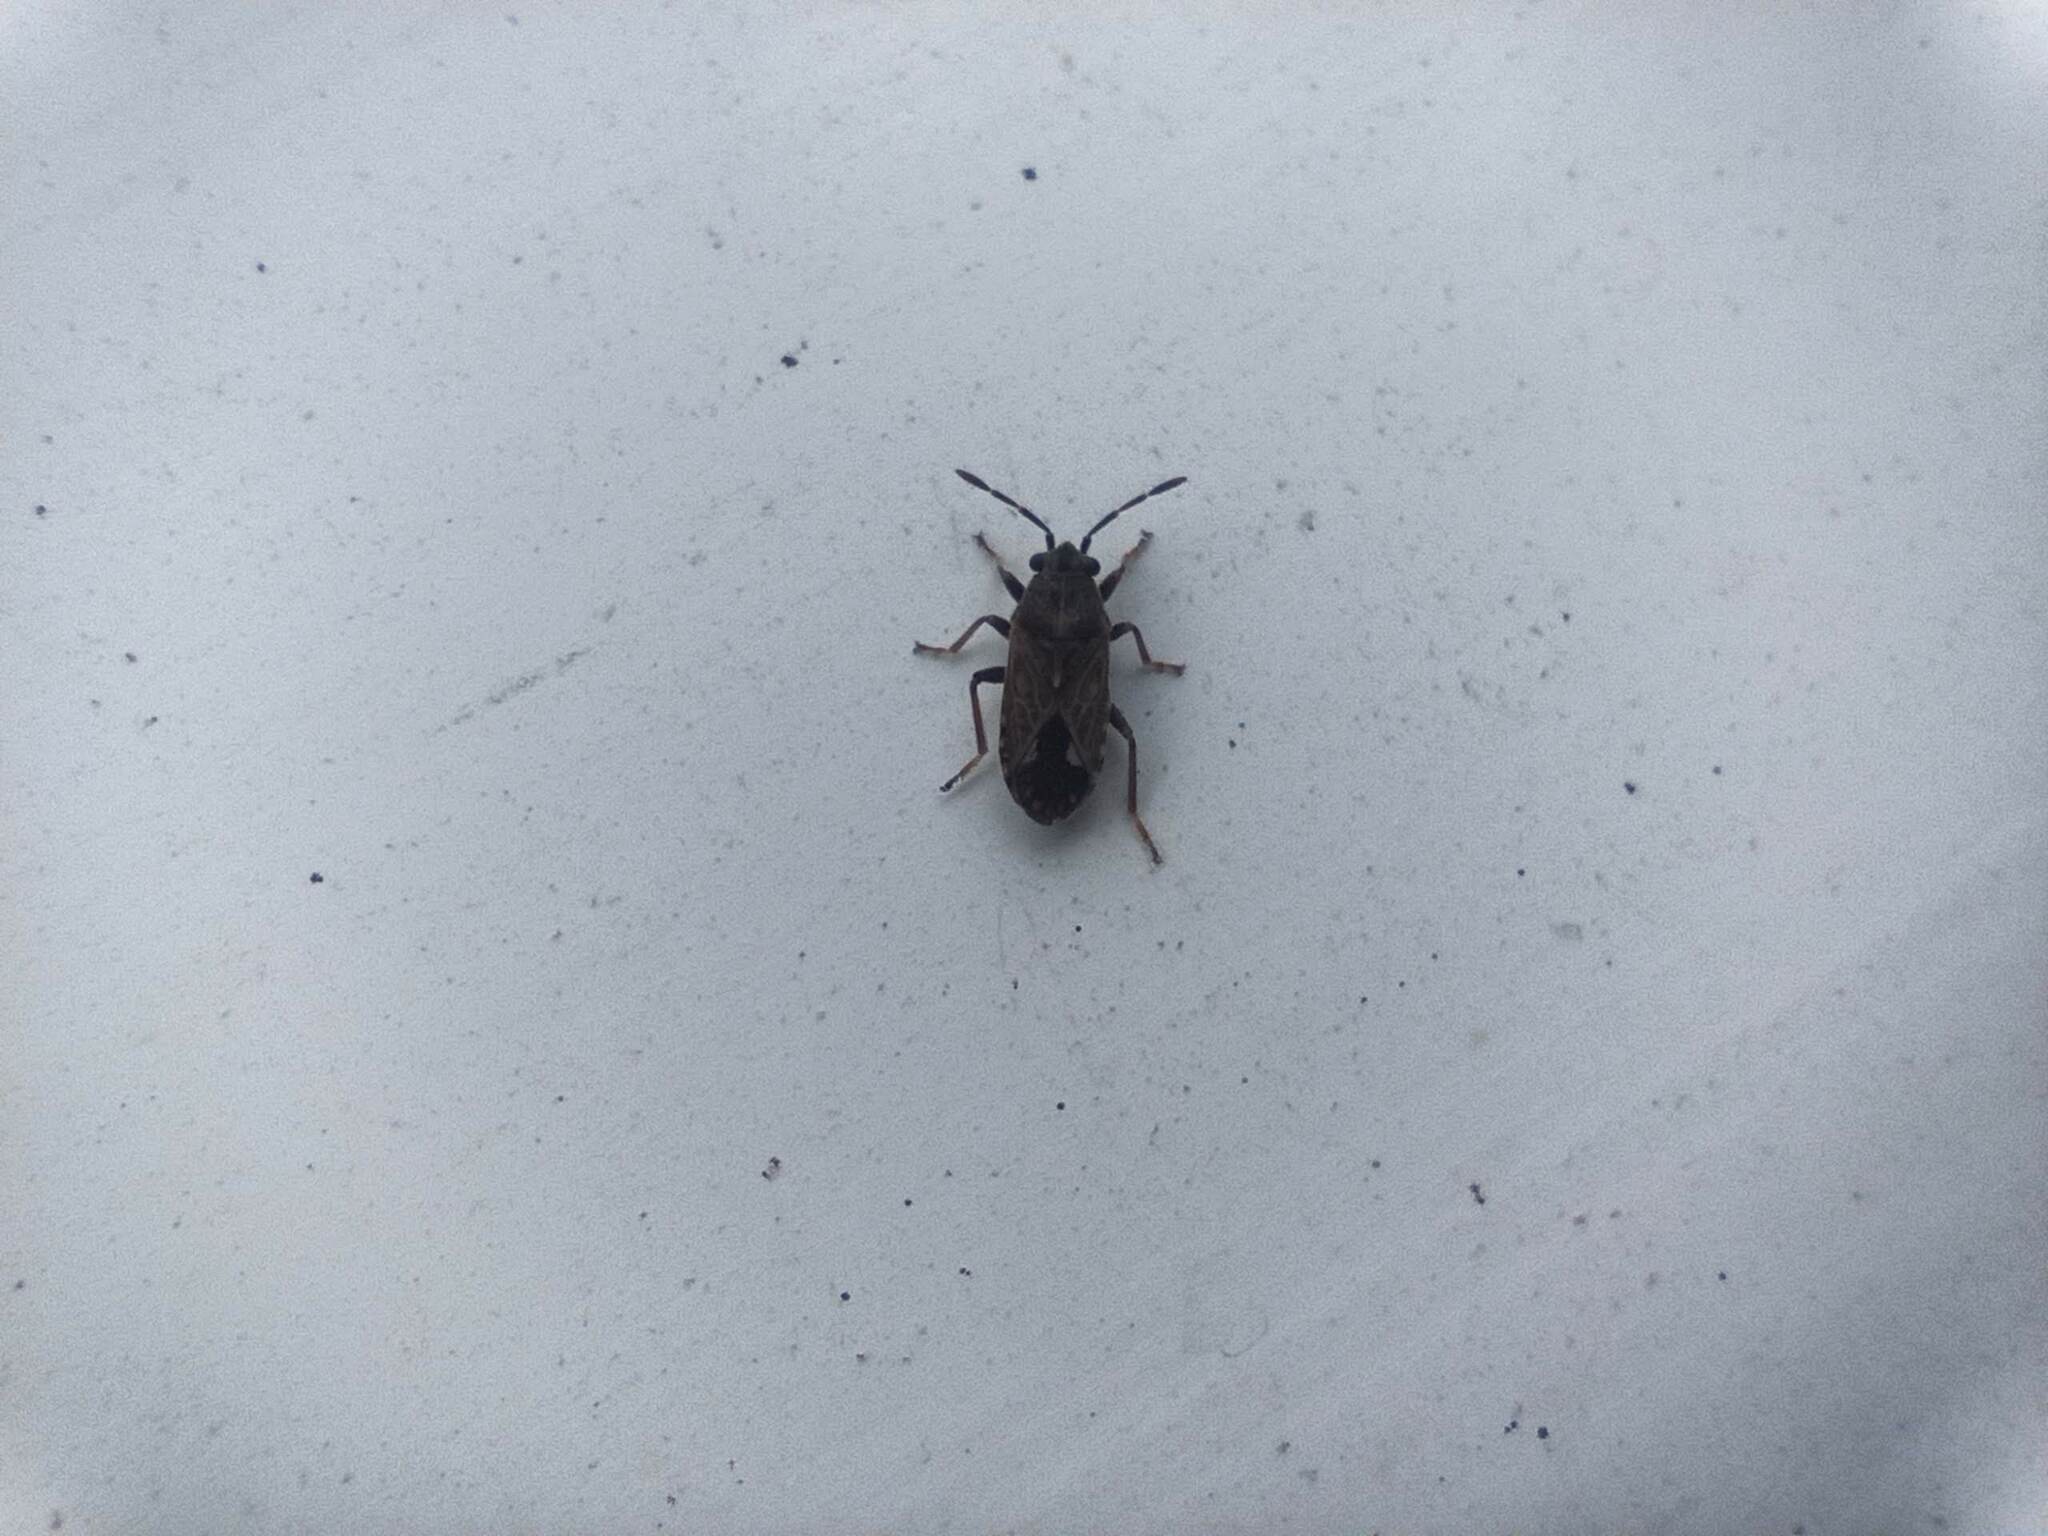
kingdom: Animalia
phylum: Arthropoda
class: Insecta
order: Hemiptera
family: Lygaeidae
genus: Lygaeosoma
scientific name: Lygaeosoma sardeum
